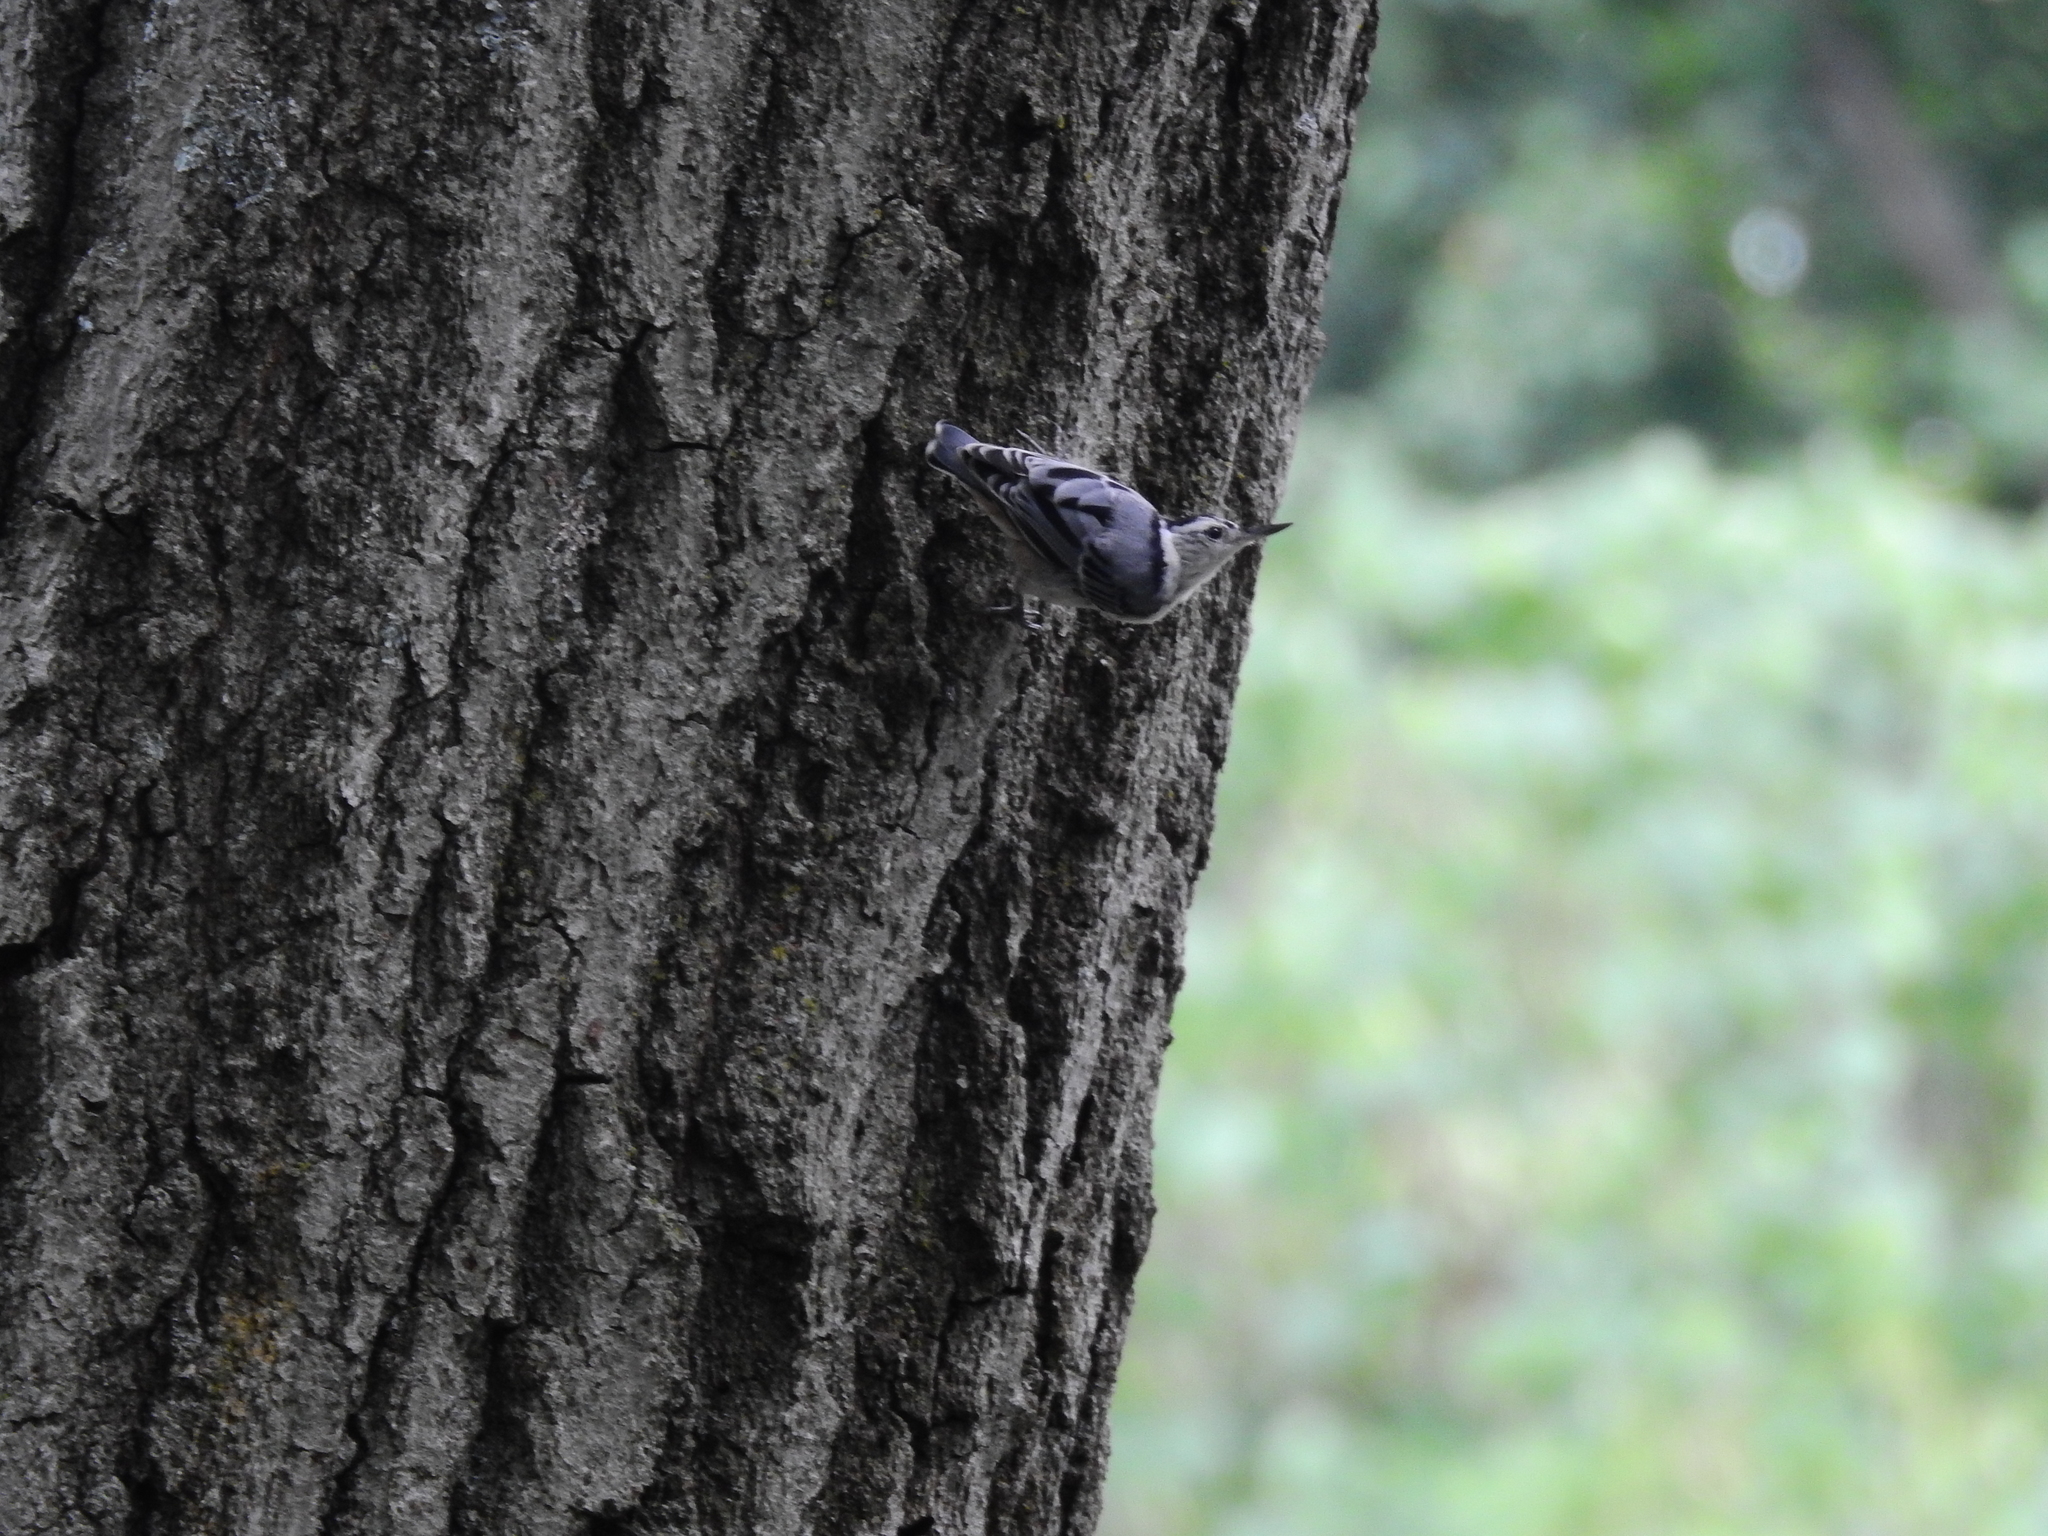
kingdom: Animalia
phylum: Chordata
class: Aves
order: Passeriformes
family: Sittidae
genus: Sitta
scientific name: Sitta carolinensis
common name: White-breasted nuthatch
